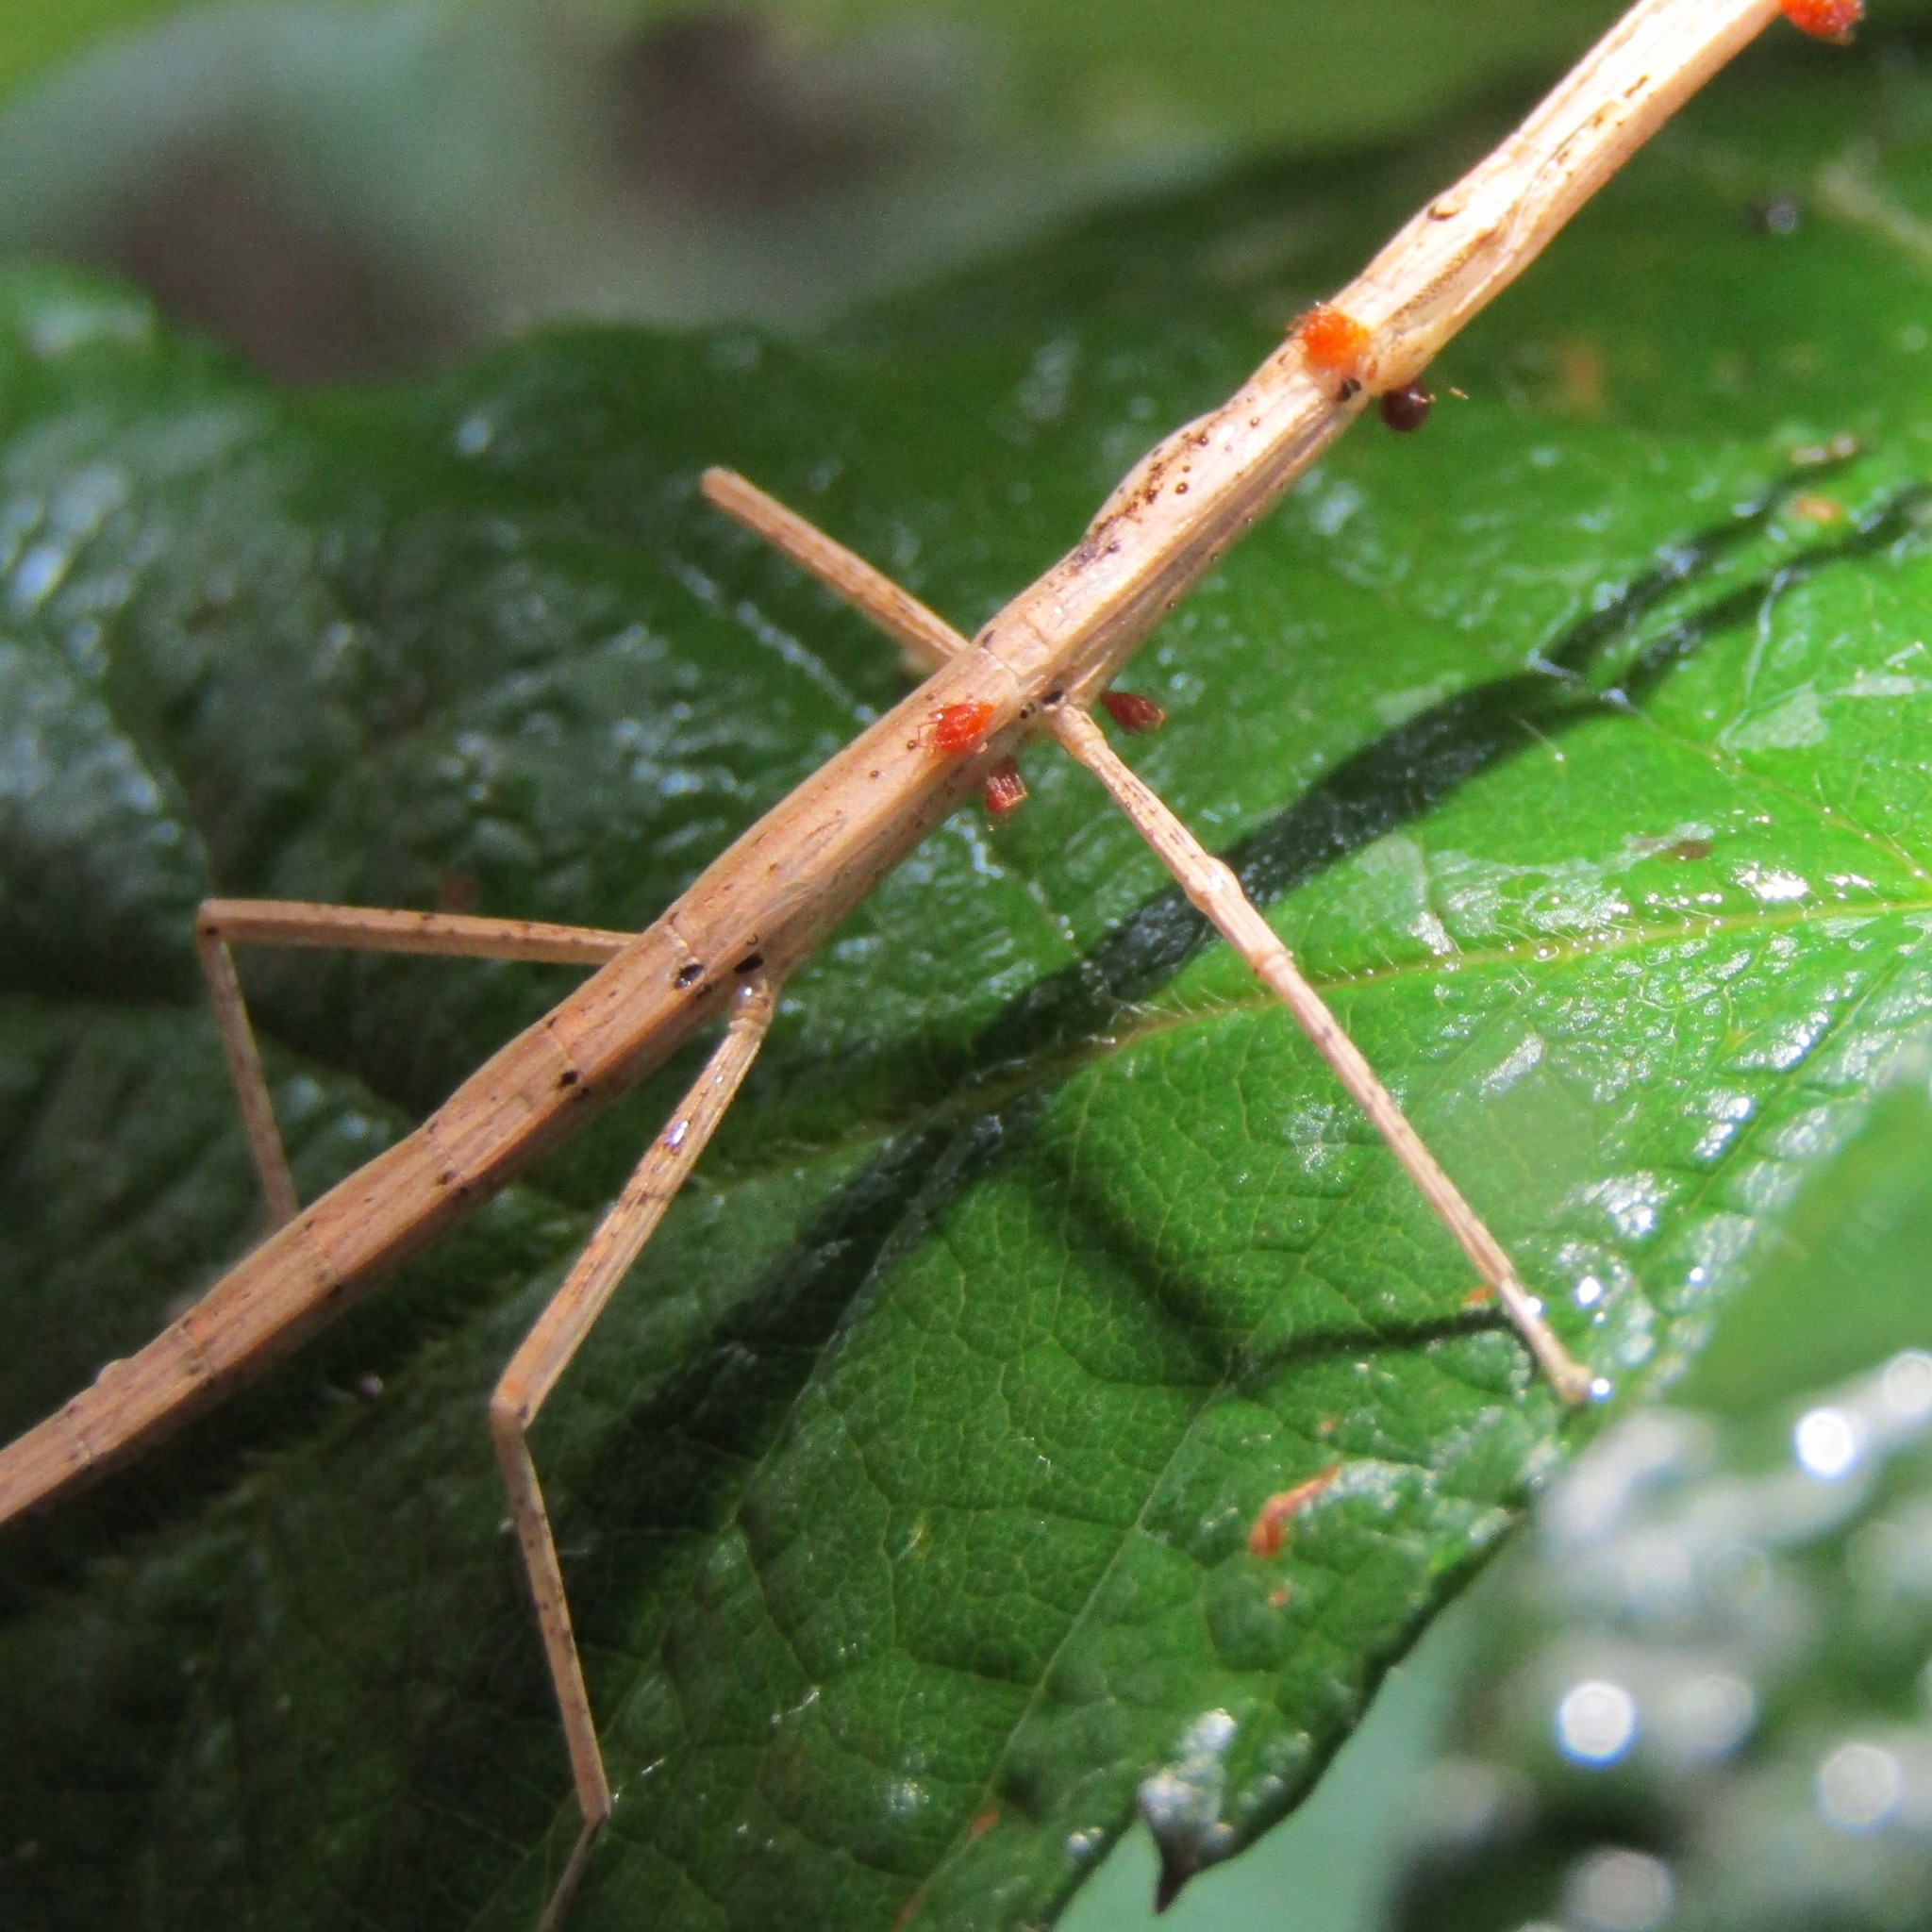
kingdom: Animalia
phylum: Arthropoda
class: Insecta
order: Phasmida
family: Phasmatidae
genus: Tectarchus
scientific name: Tectarchus huttoni
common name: The common ridge-backed stick insect
